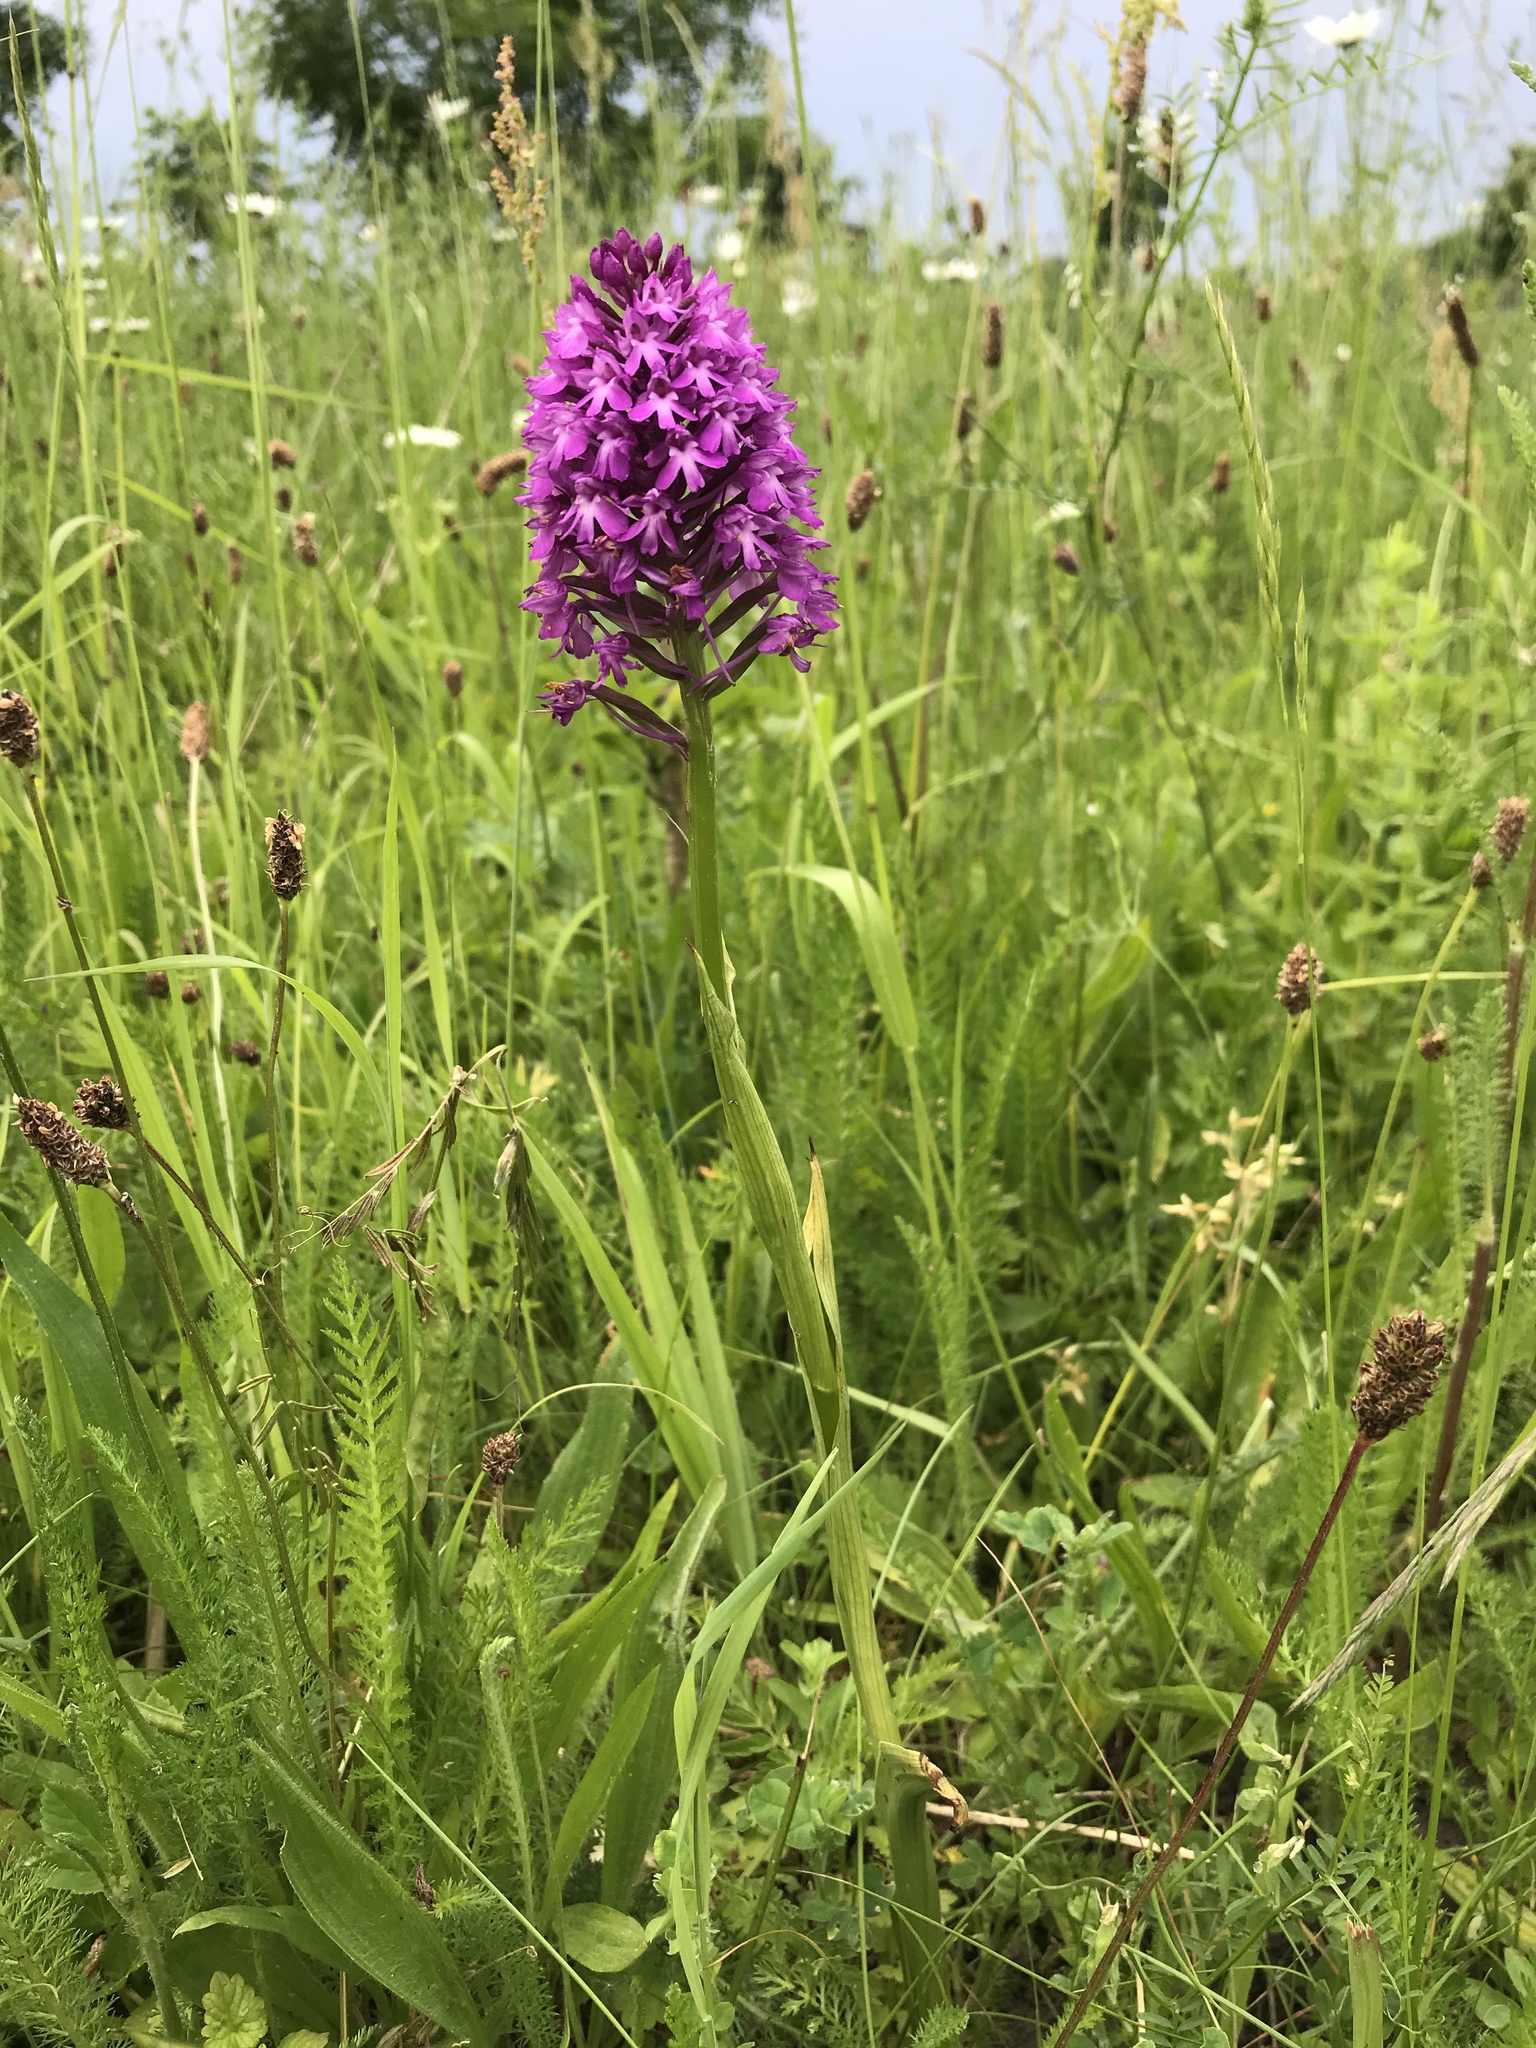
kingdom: Plantae
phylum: Tracheophyta
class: Liliopsida
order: Asparagales
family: Orchidaceae
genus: Anacamptis
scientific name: Anacamptis pyramidalis
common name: Pyramidal orchid
